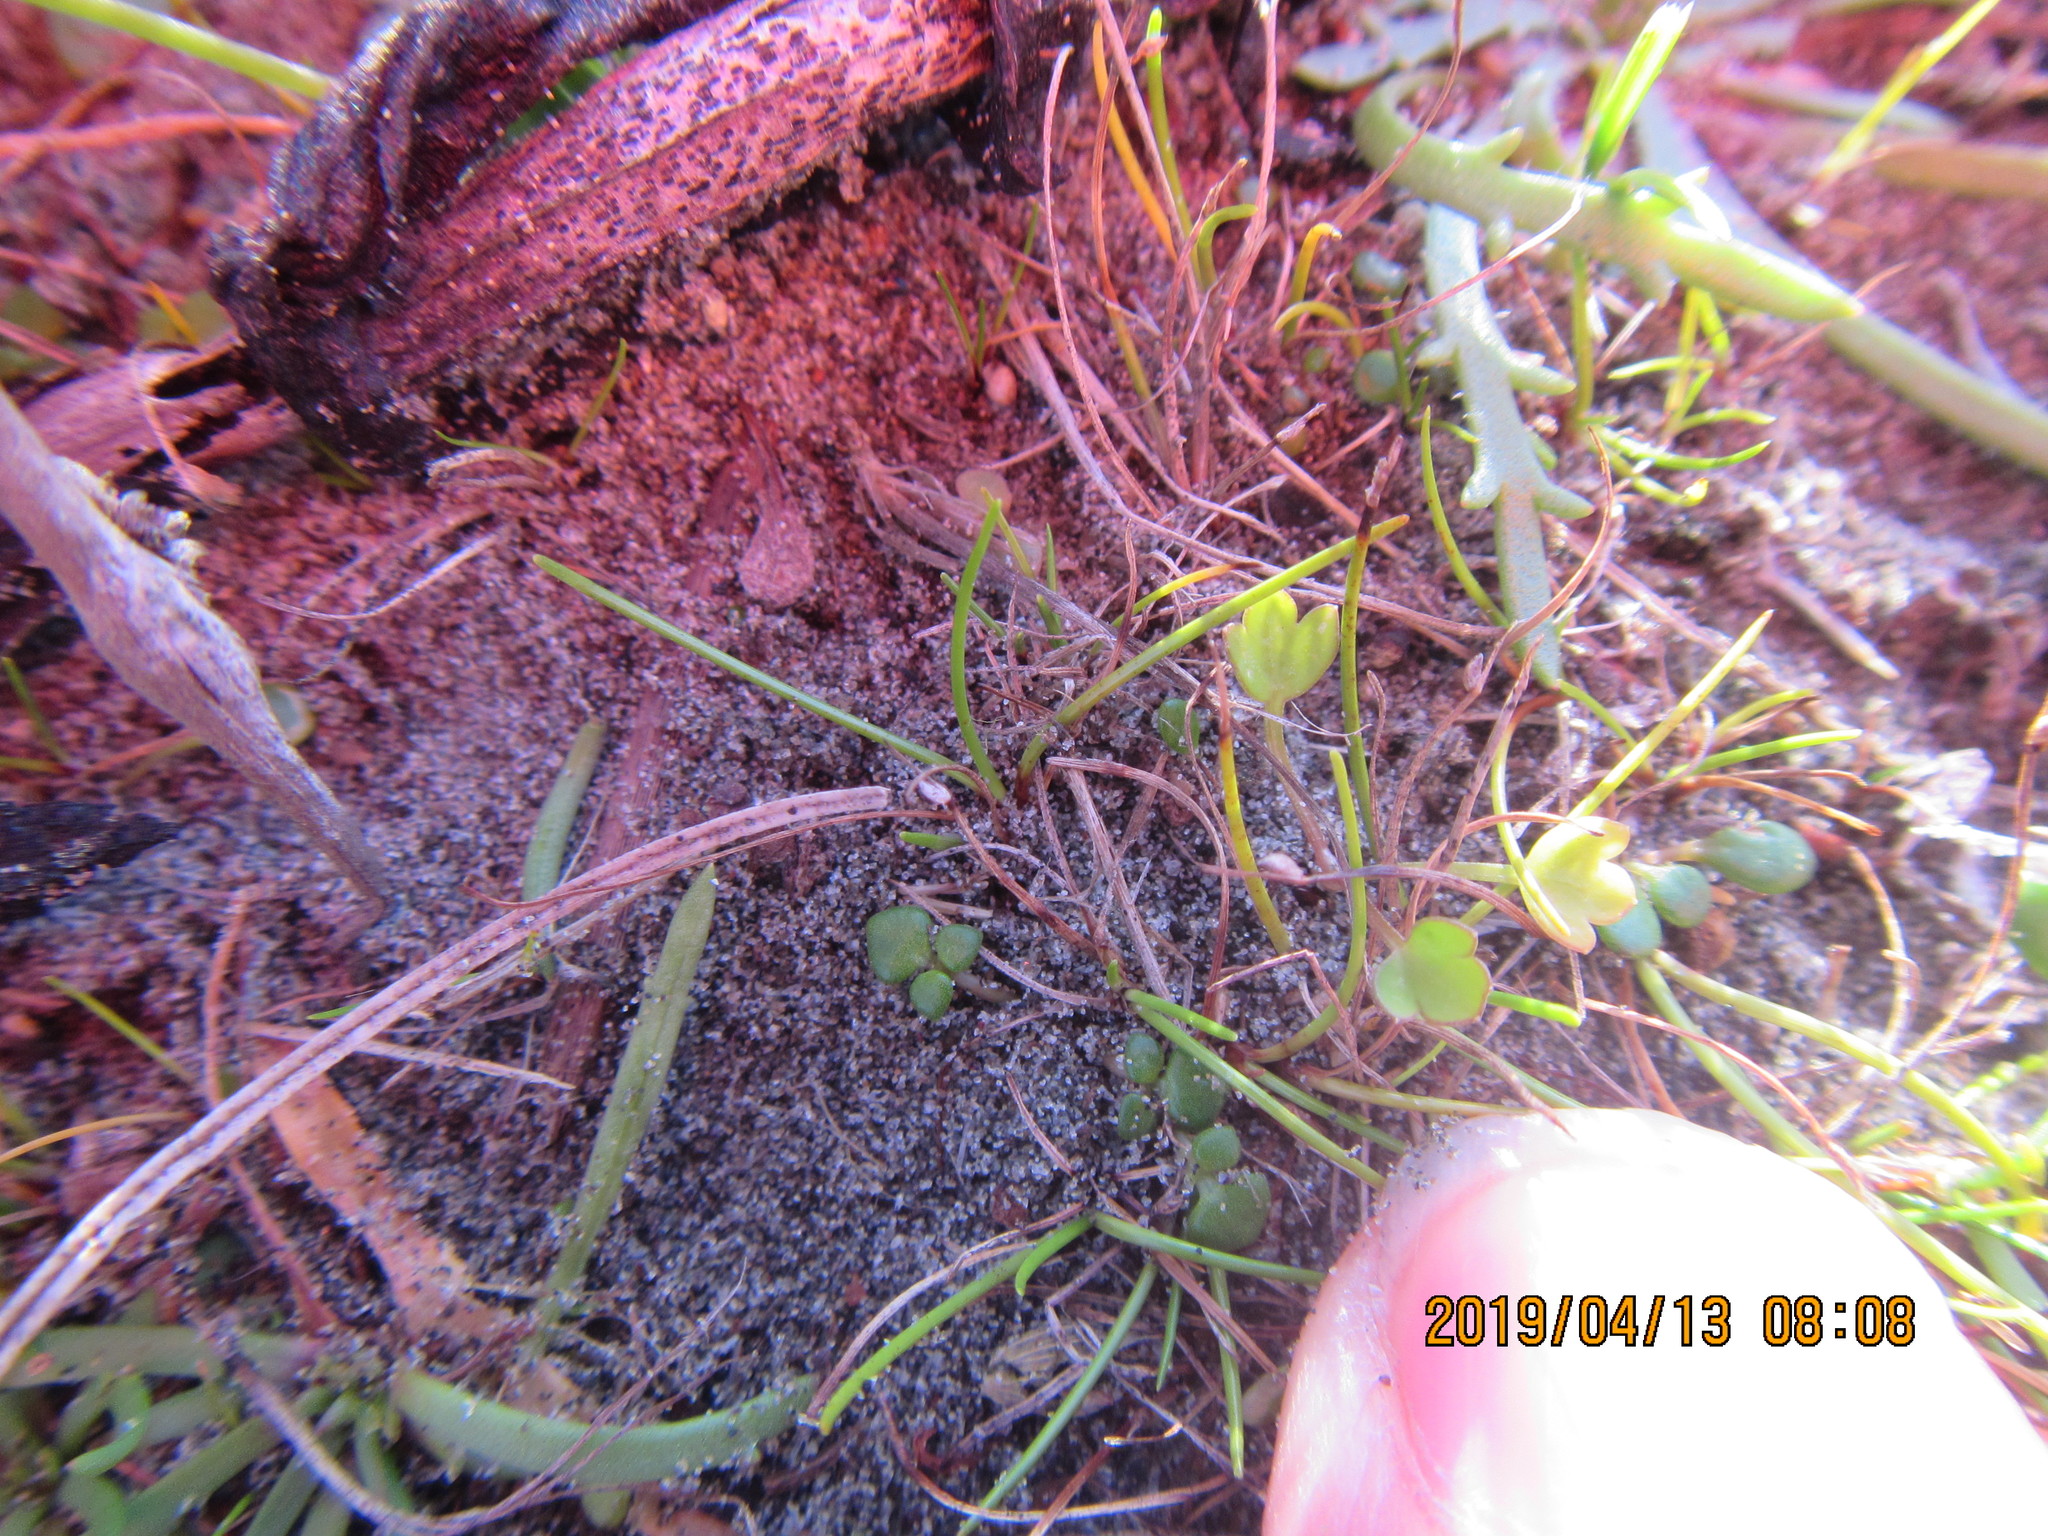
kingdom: Plantae
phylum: Tracheophyta
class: Magnoliopsida
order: Ranunculales
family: Ranunculaceae
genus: Ranunculus
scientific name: Ranunculus acaulis
